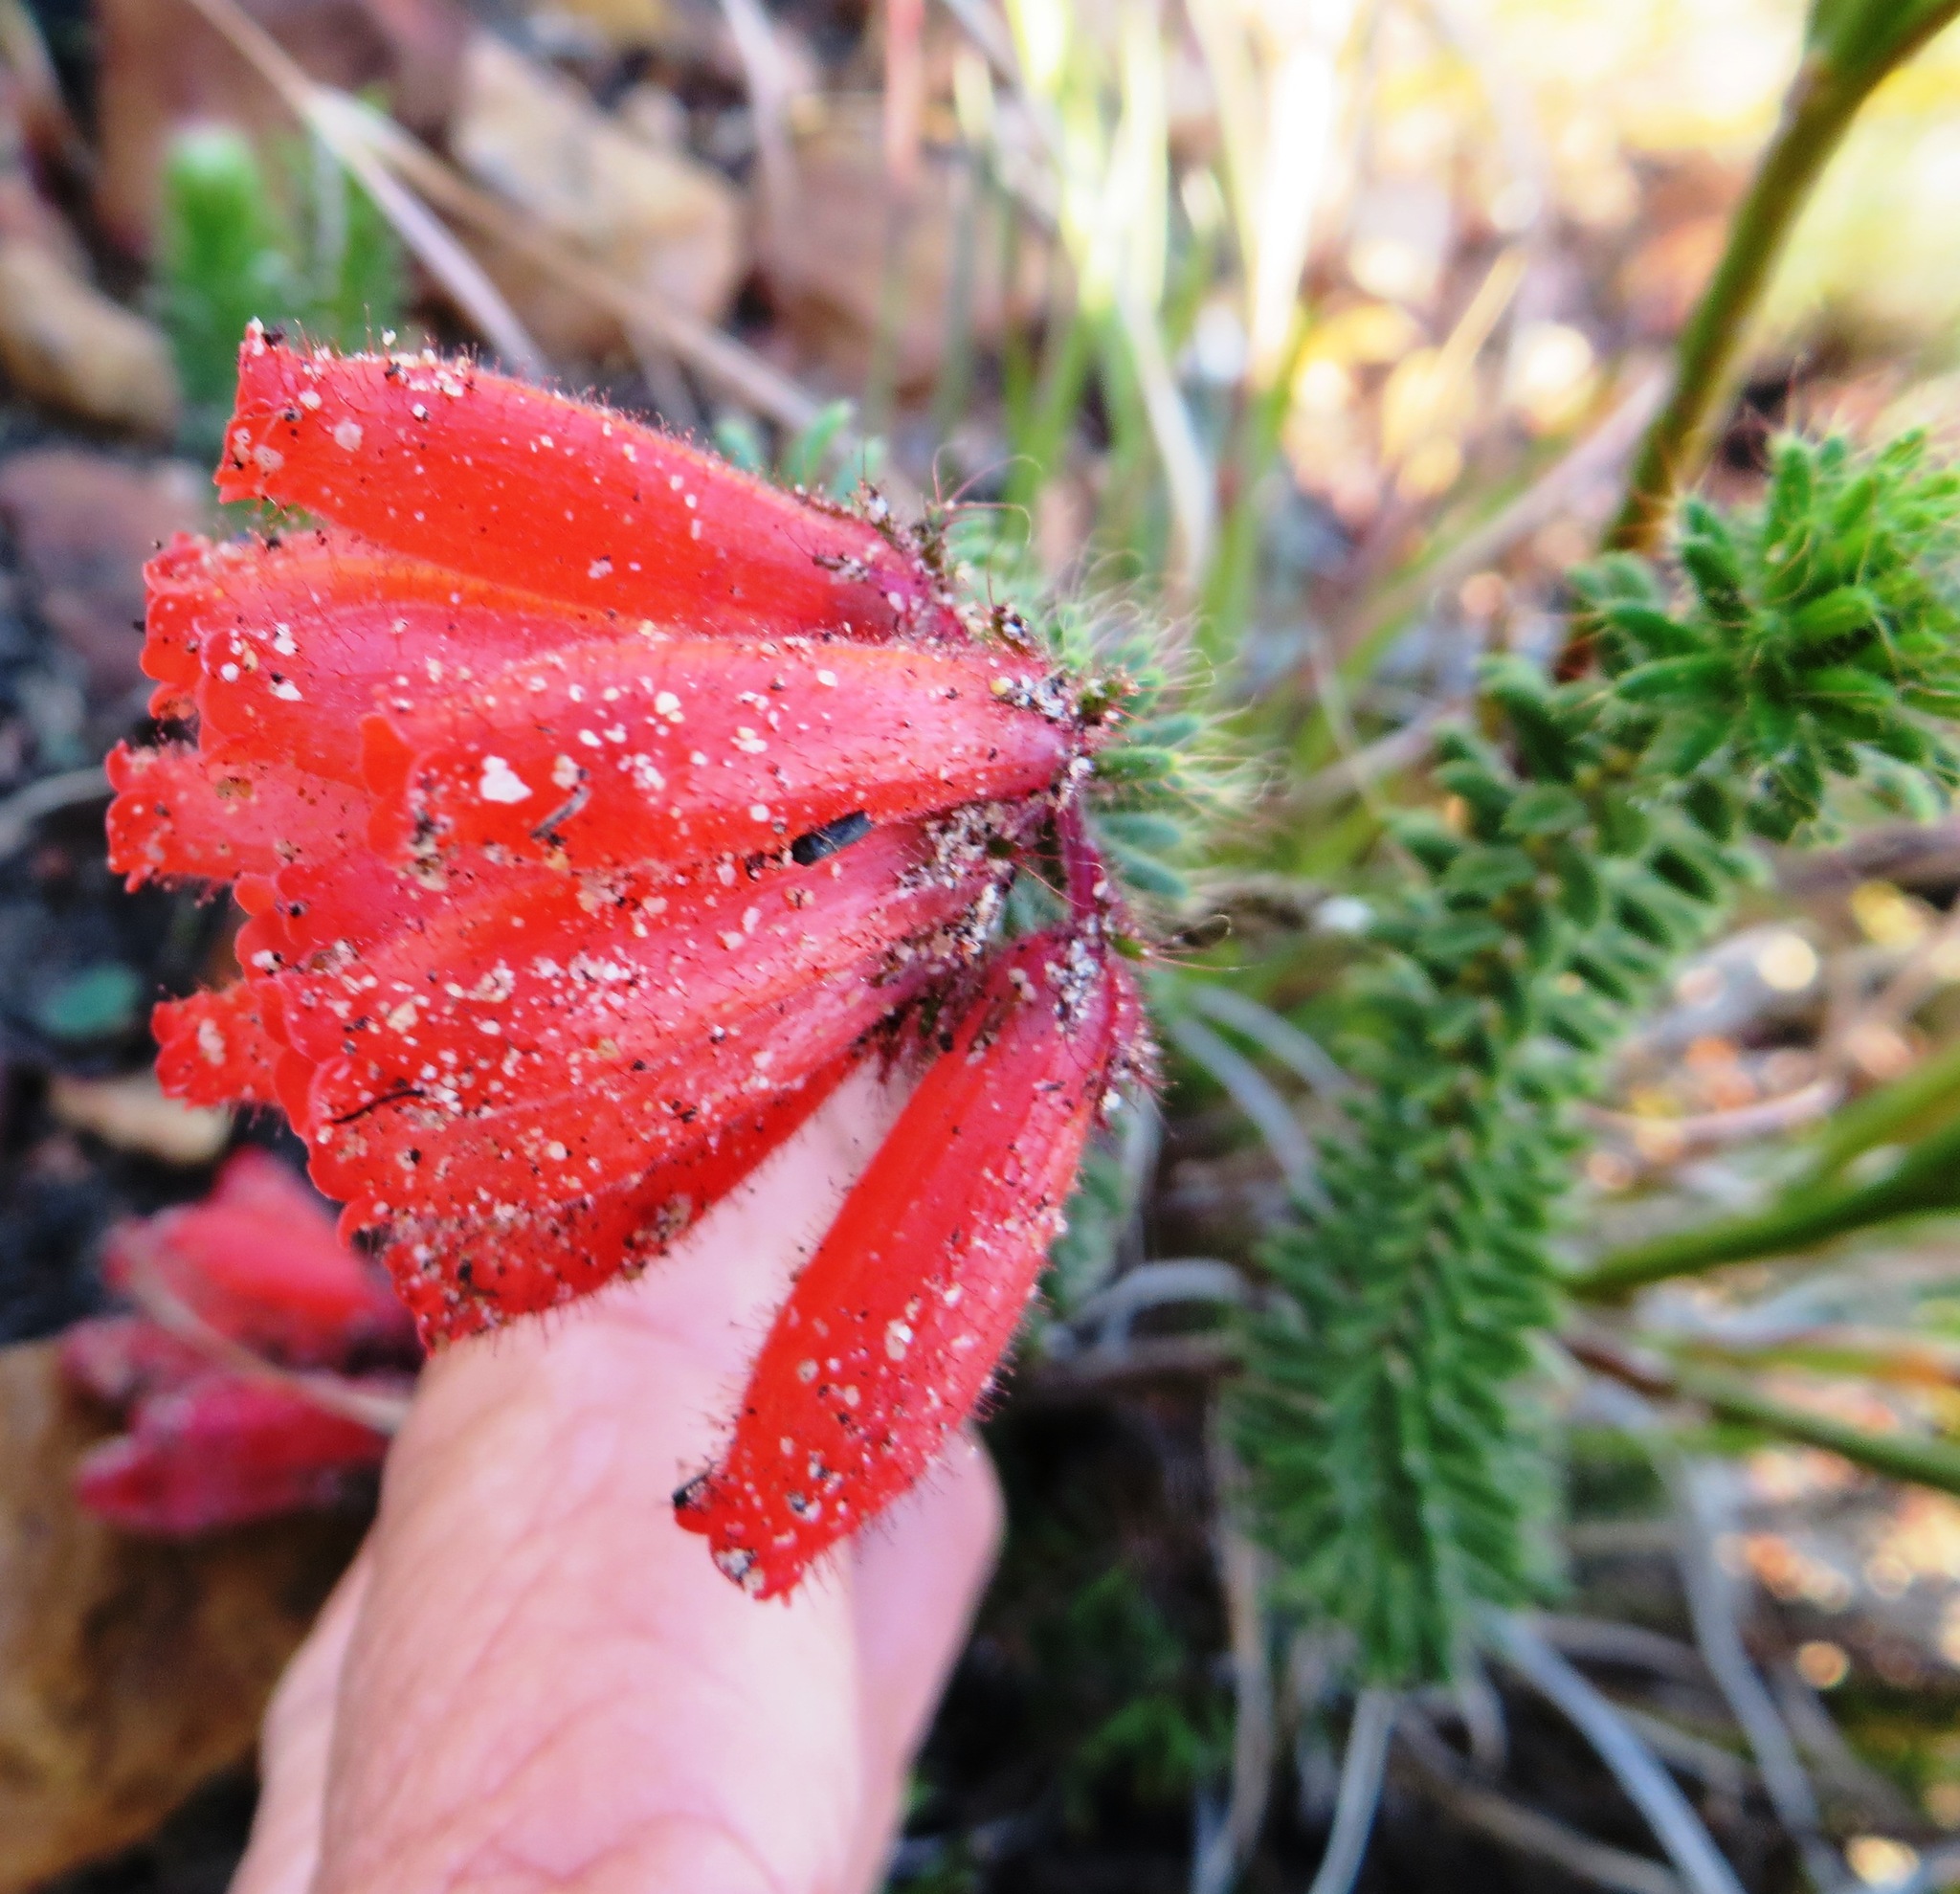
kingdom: Plantae
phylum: Tracheophyta
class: Magnoliopsida
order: Ericales
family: Ericaceae
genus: Erica
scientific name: Erica cerinthoides
